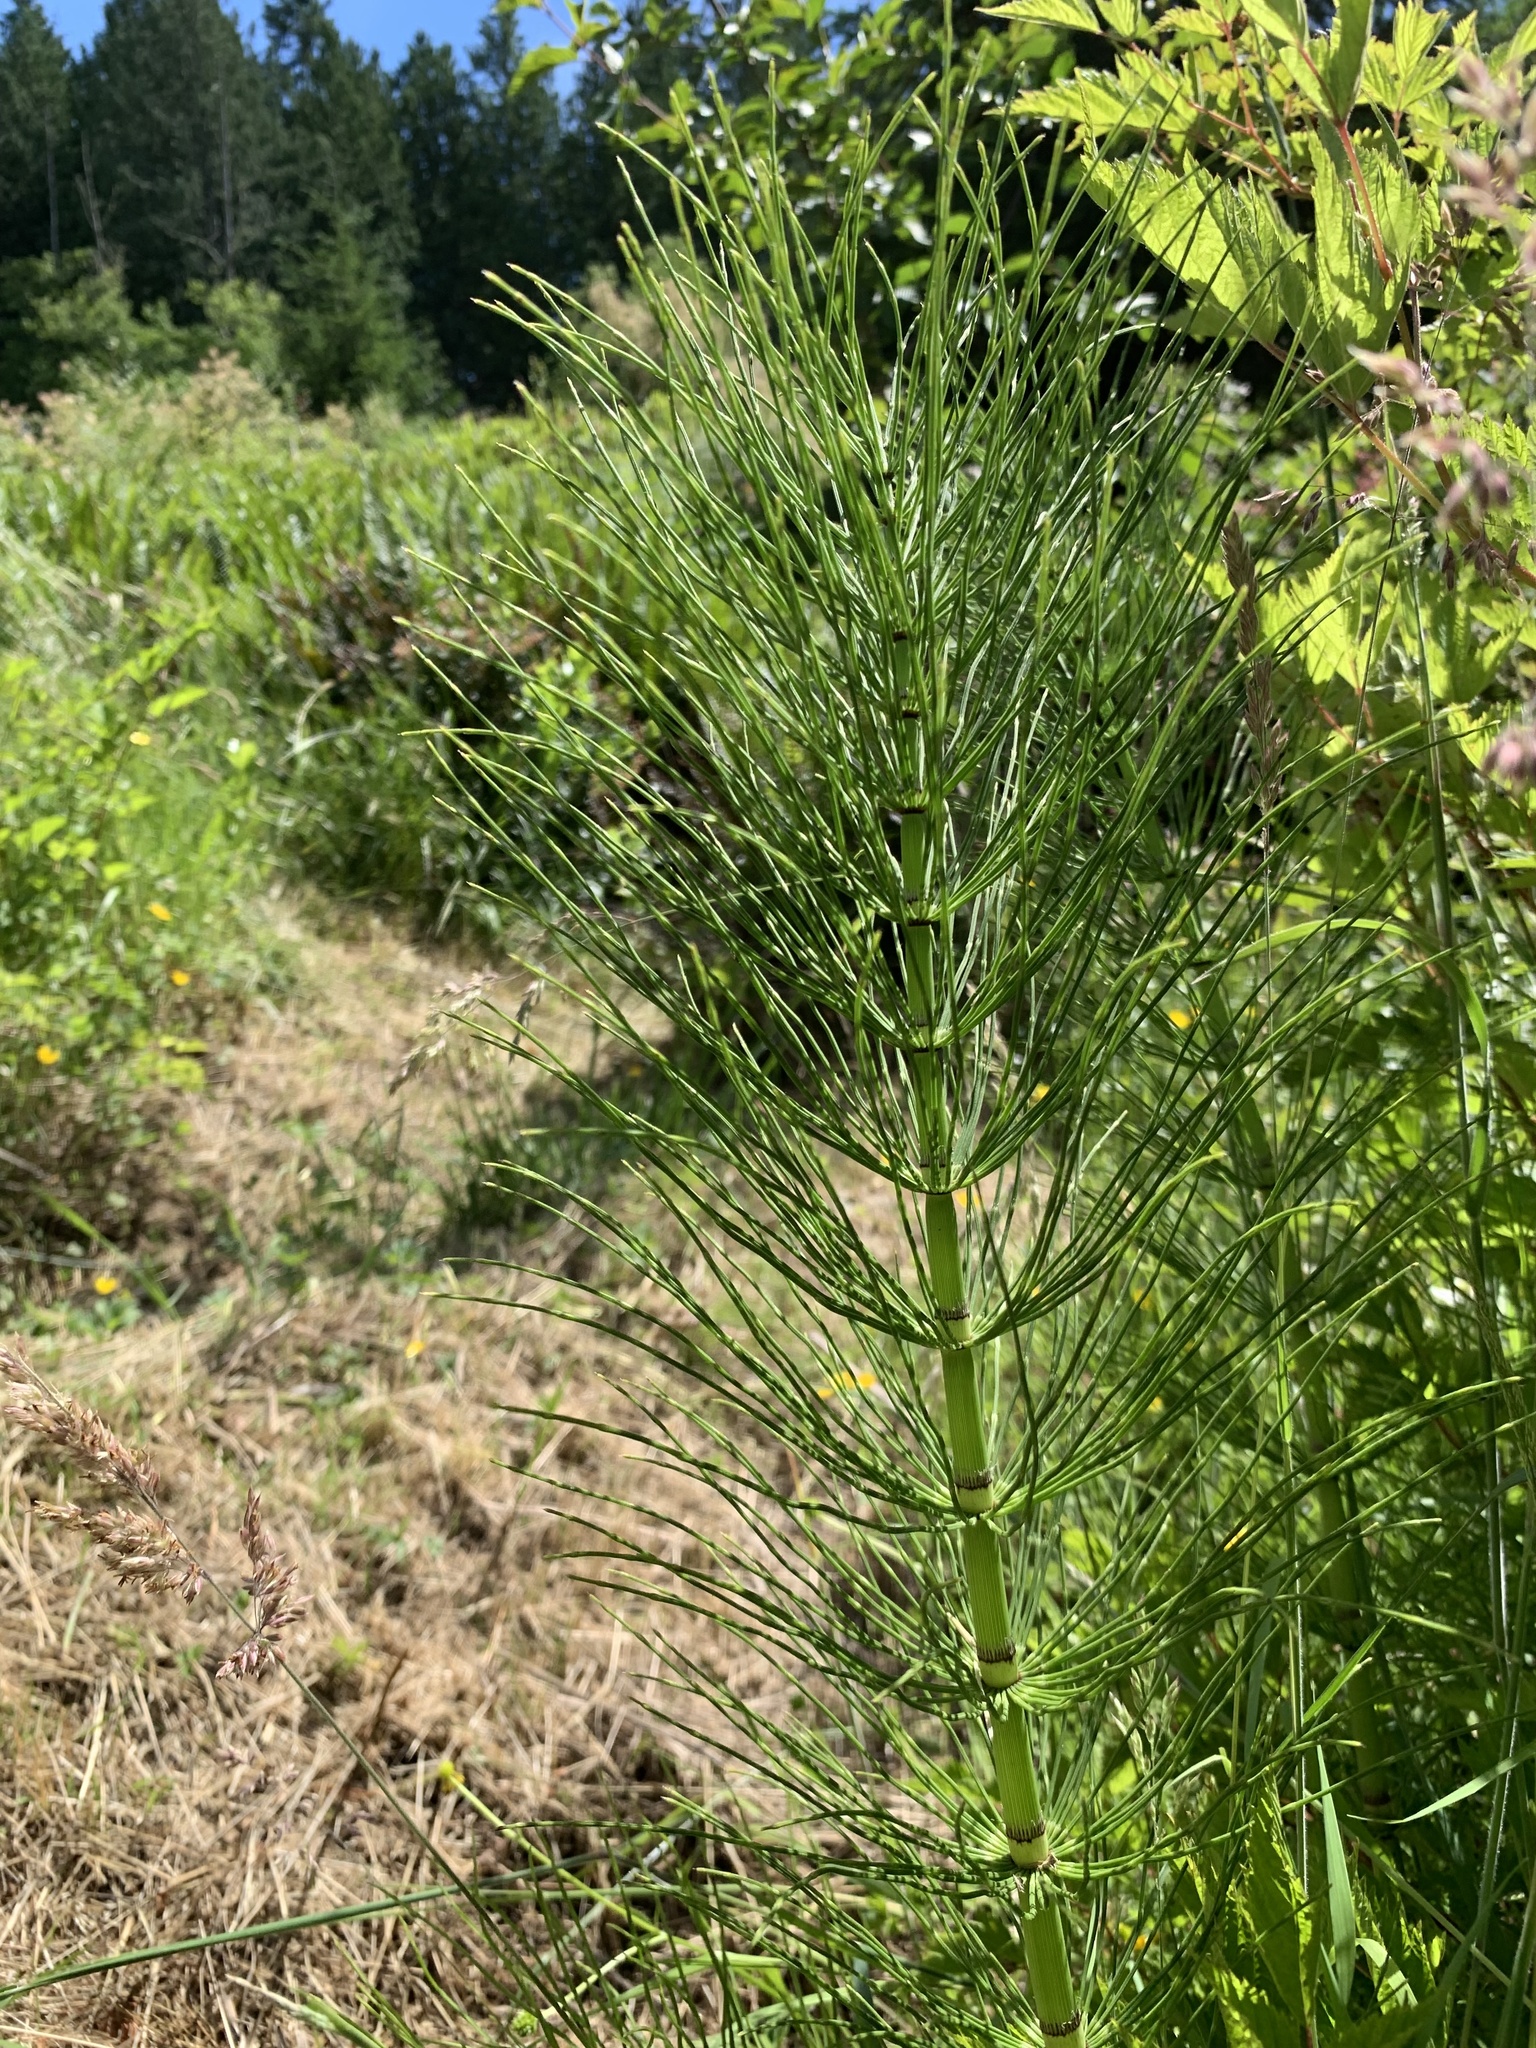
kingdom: Plantae
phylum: Tracheophyta
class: Polypodiopsida
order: Equisetales
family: Equisetaceae
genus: Equisetum
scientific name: Equisetum telmateia
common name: Great horsetail
